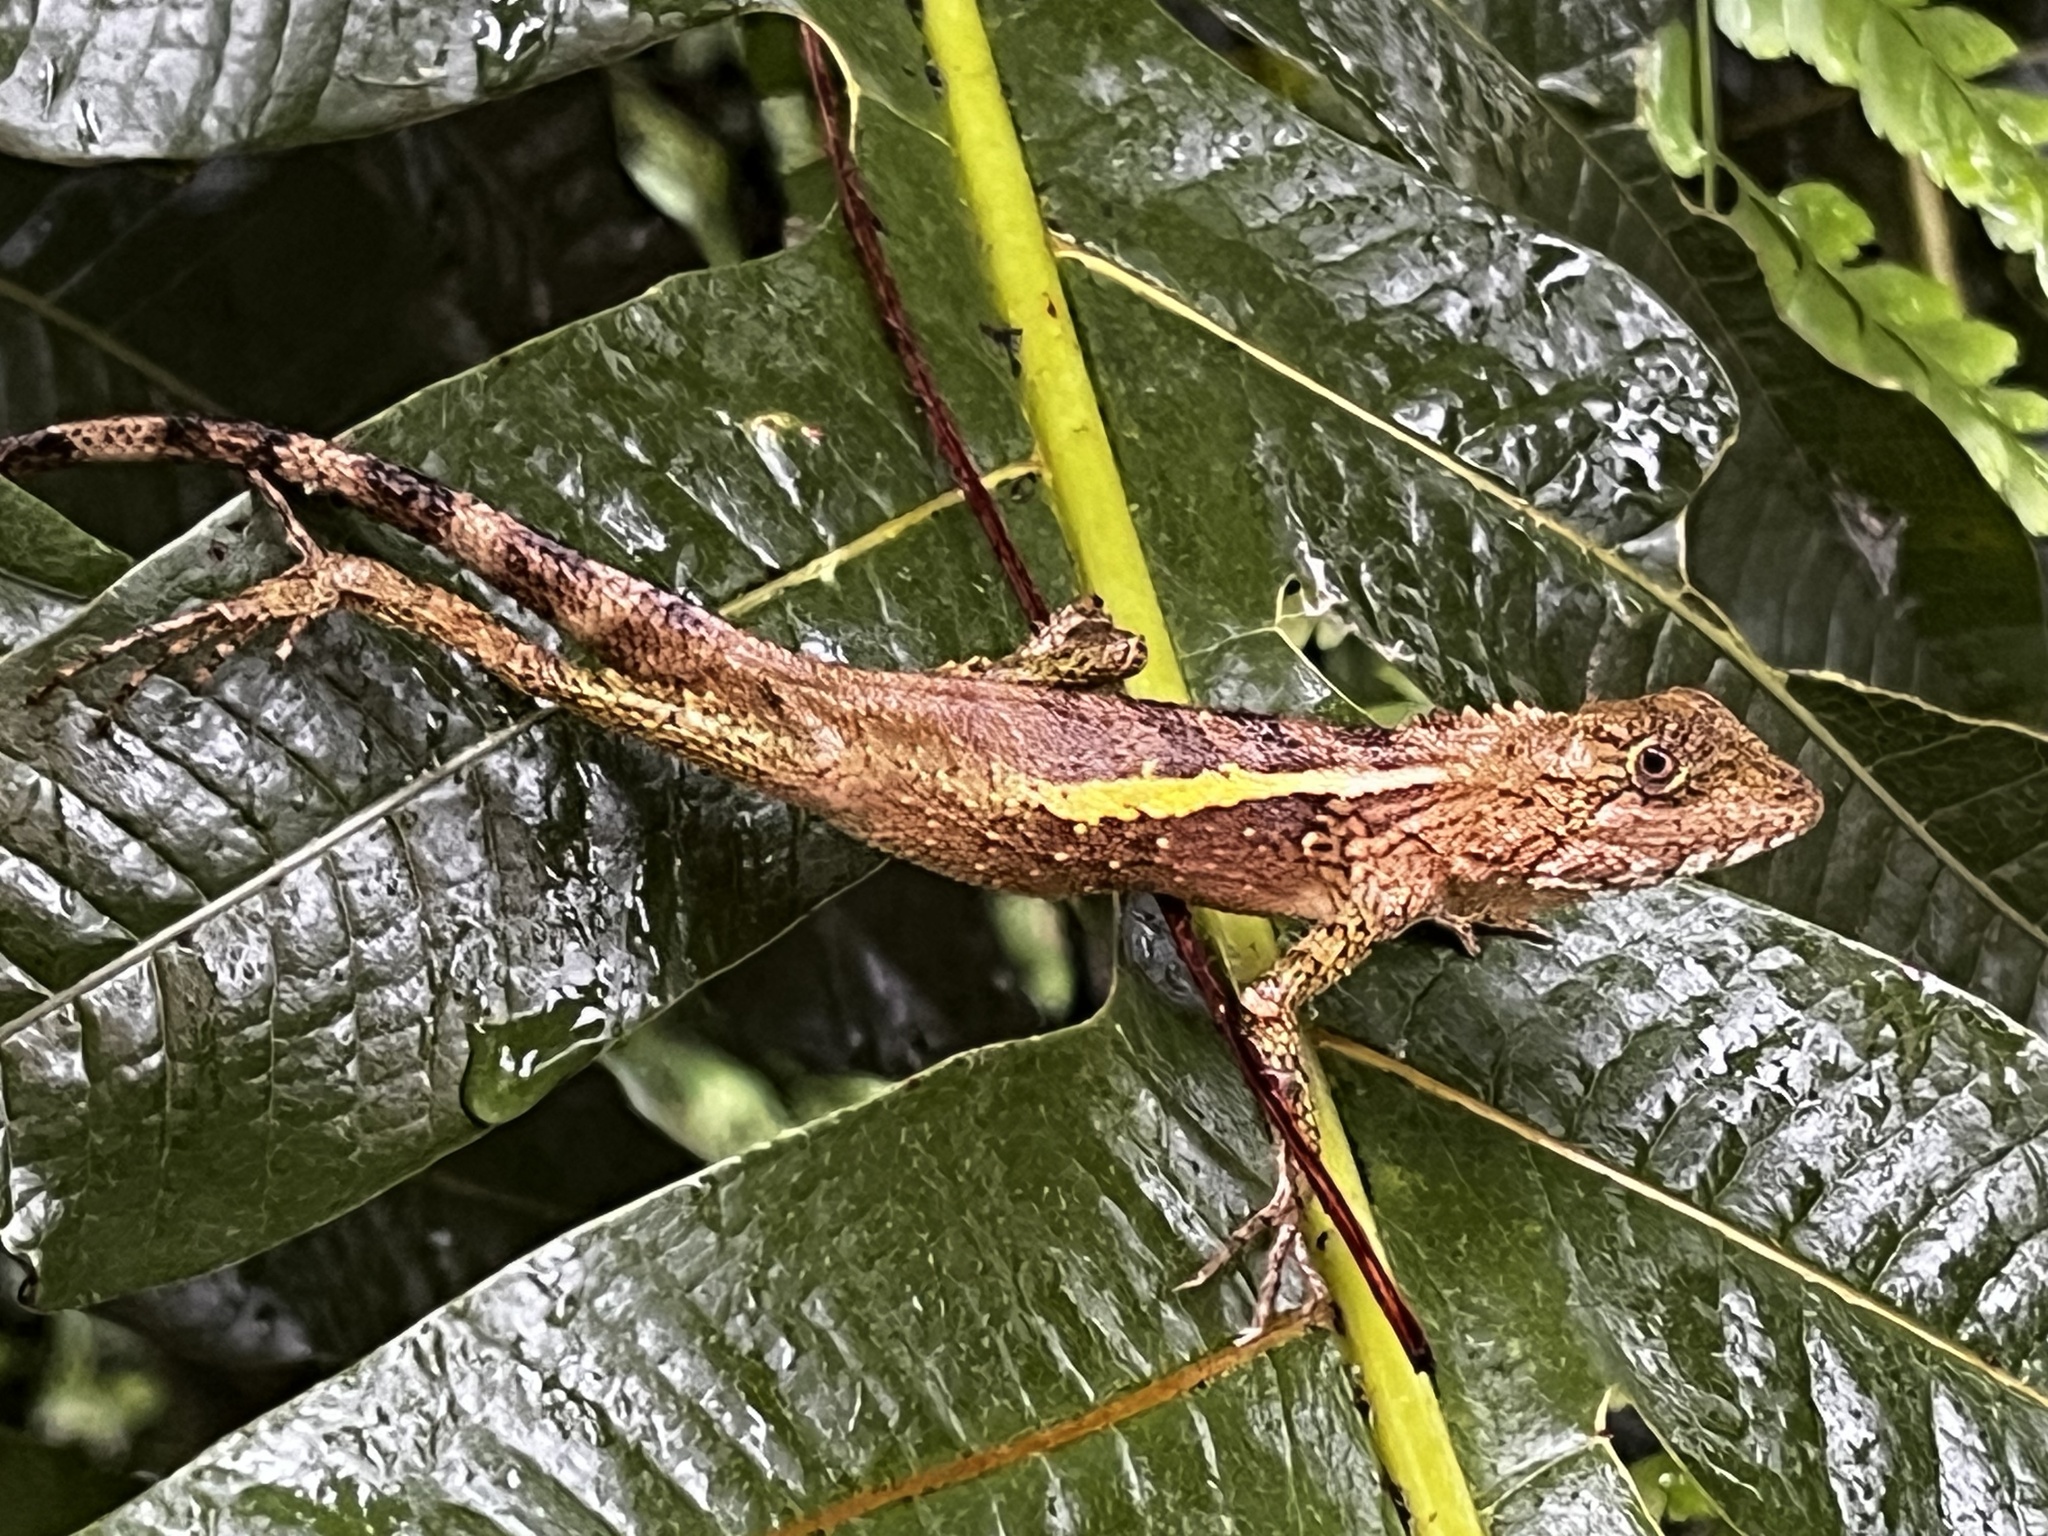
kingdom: Animalia
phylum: Chordata
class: Squamata
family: Agamidae
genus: Diploderma
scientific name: Diploderma swinhonis
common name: Taiwan japalure
